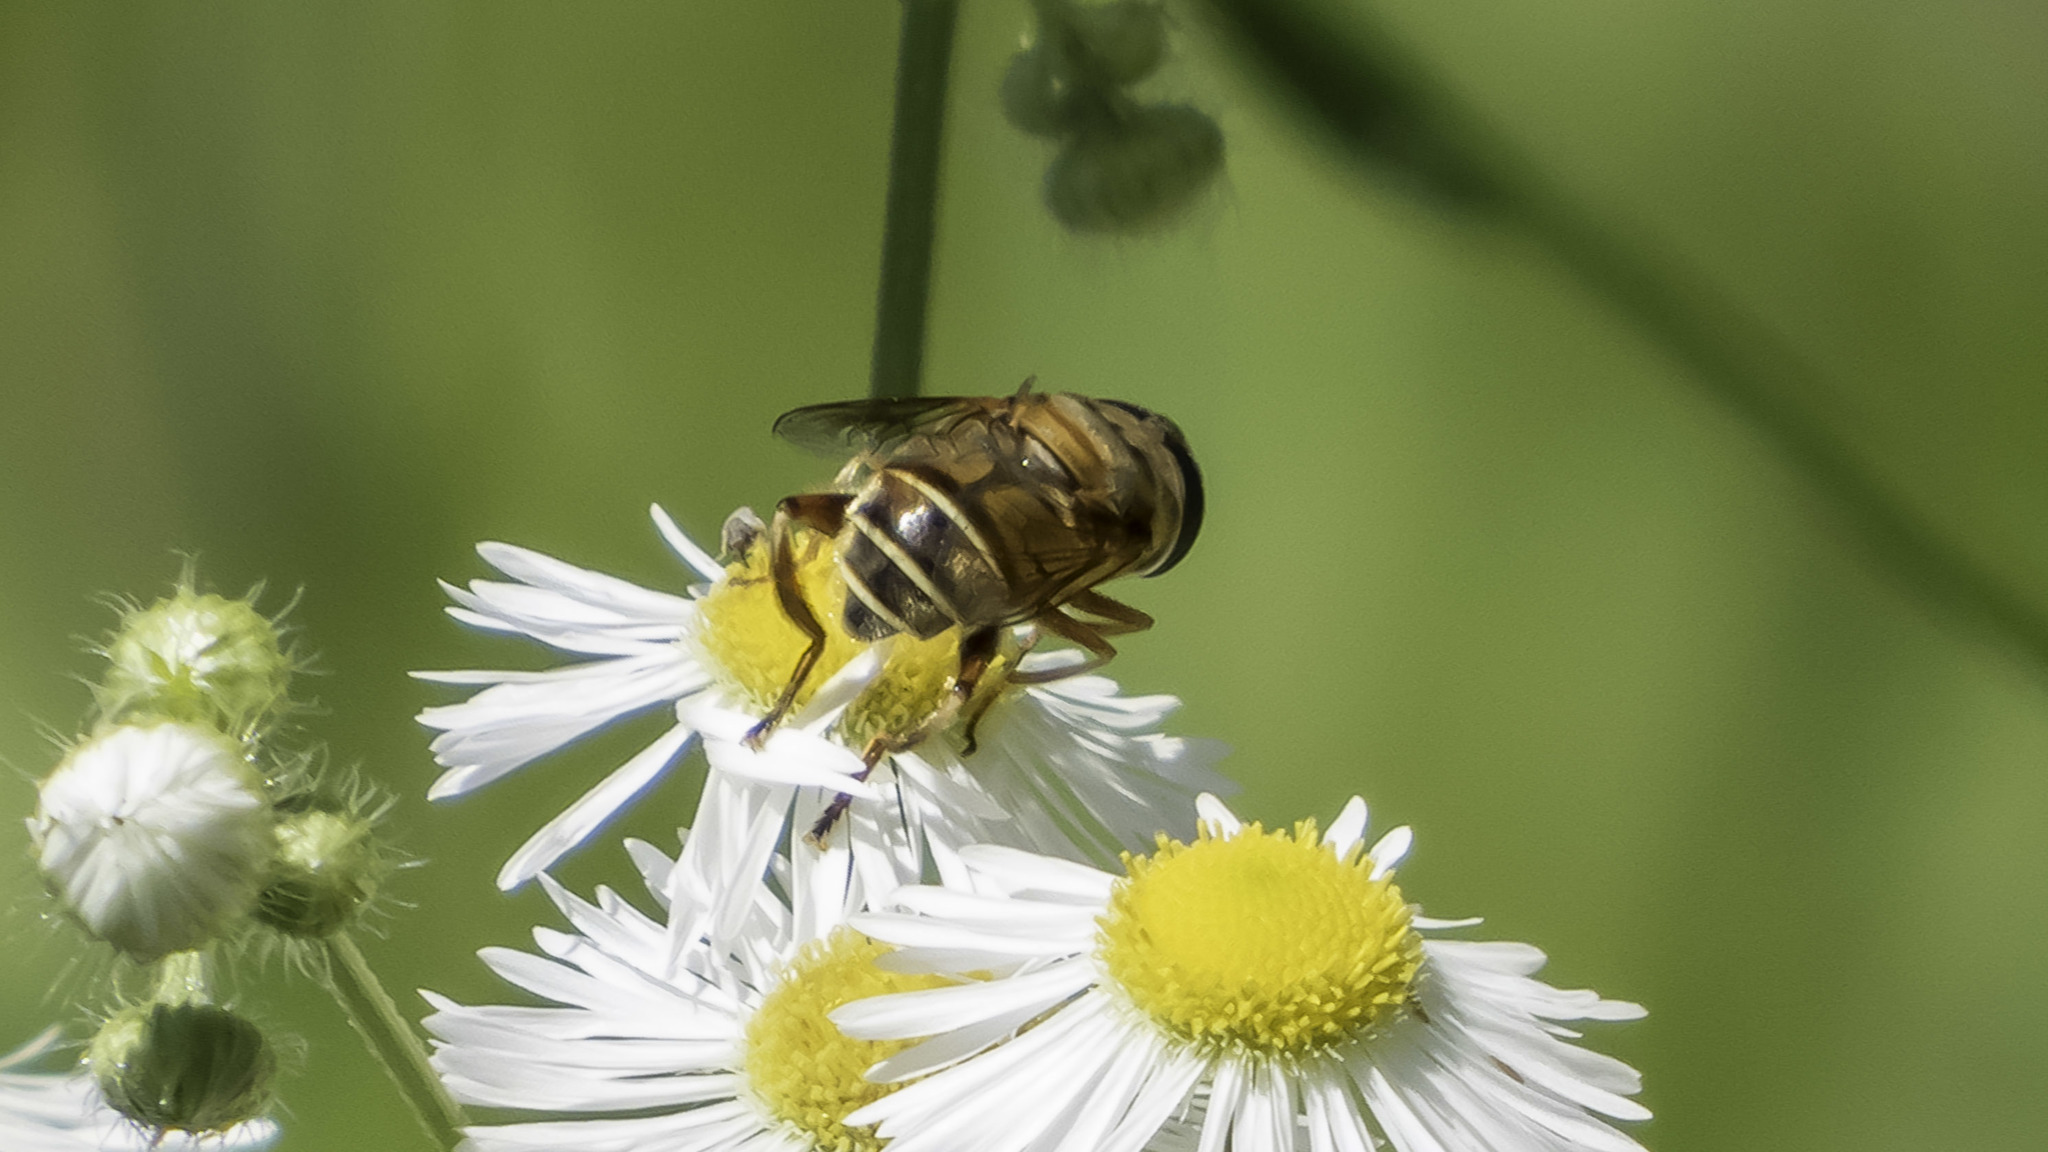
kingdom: Animalia
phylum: Arthropoda
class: Insecta
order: Diptera
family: Syrphidae
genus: Palpada
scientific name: Palpada vinetorum
